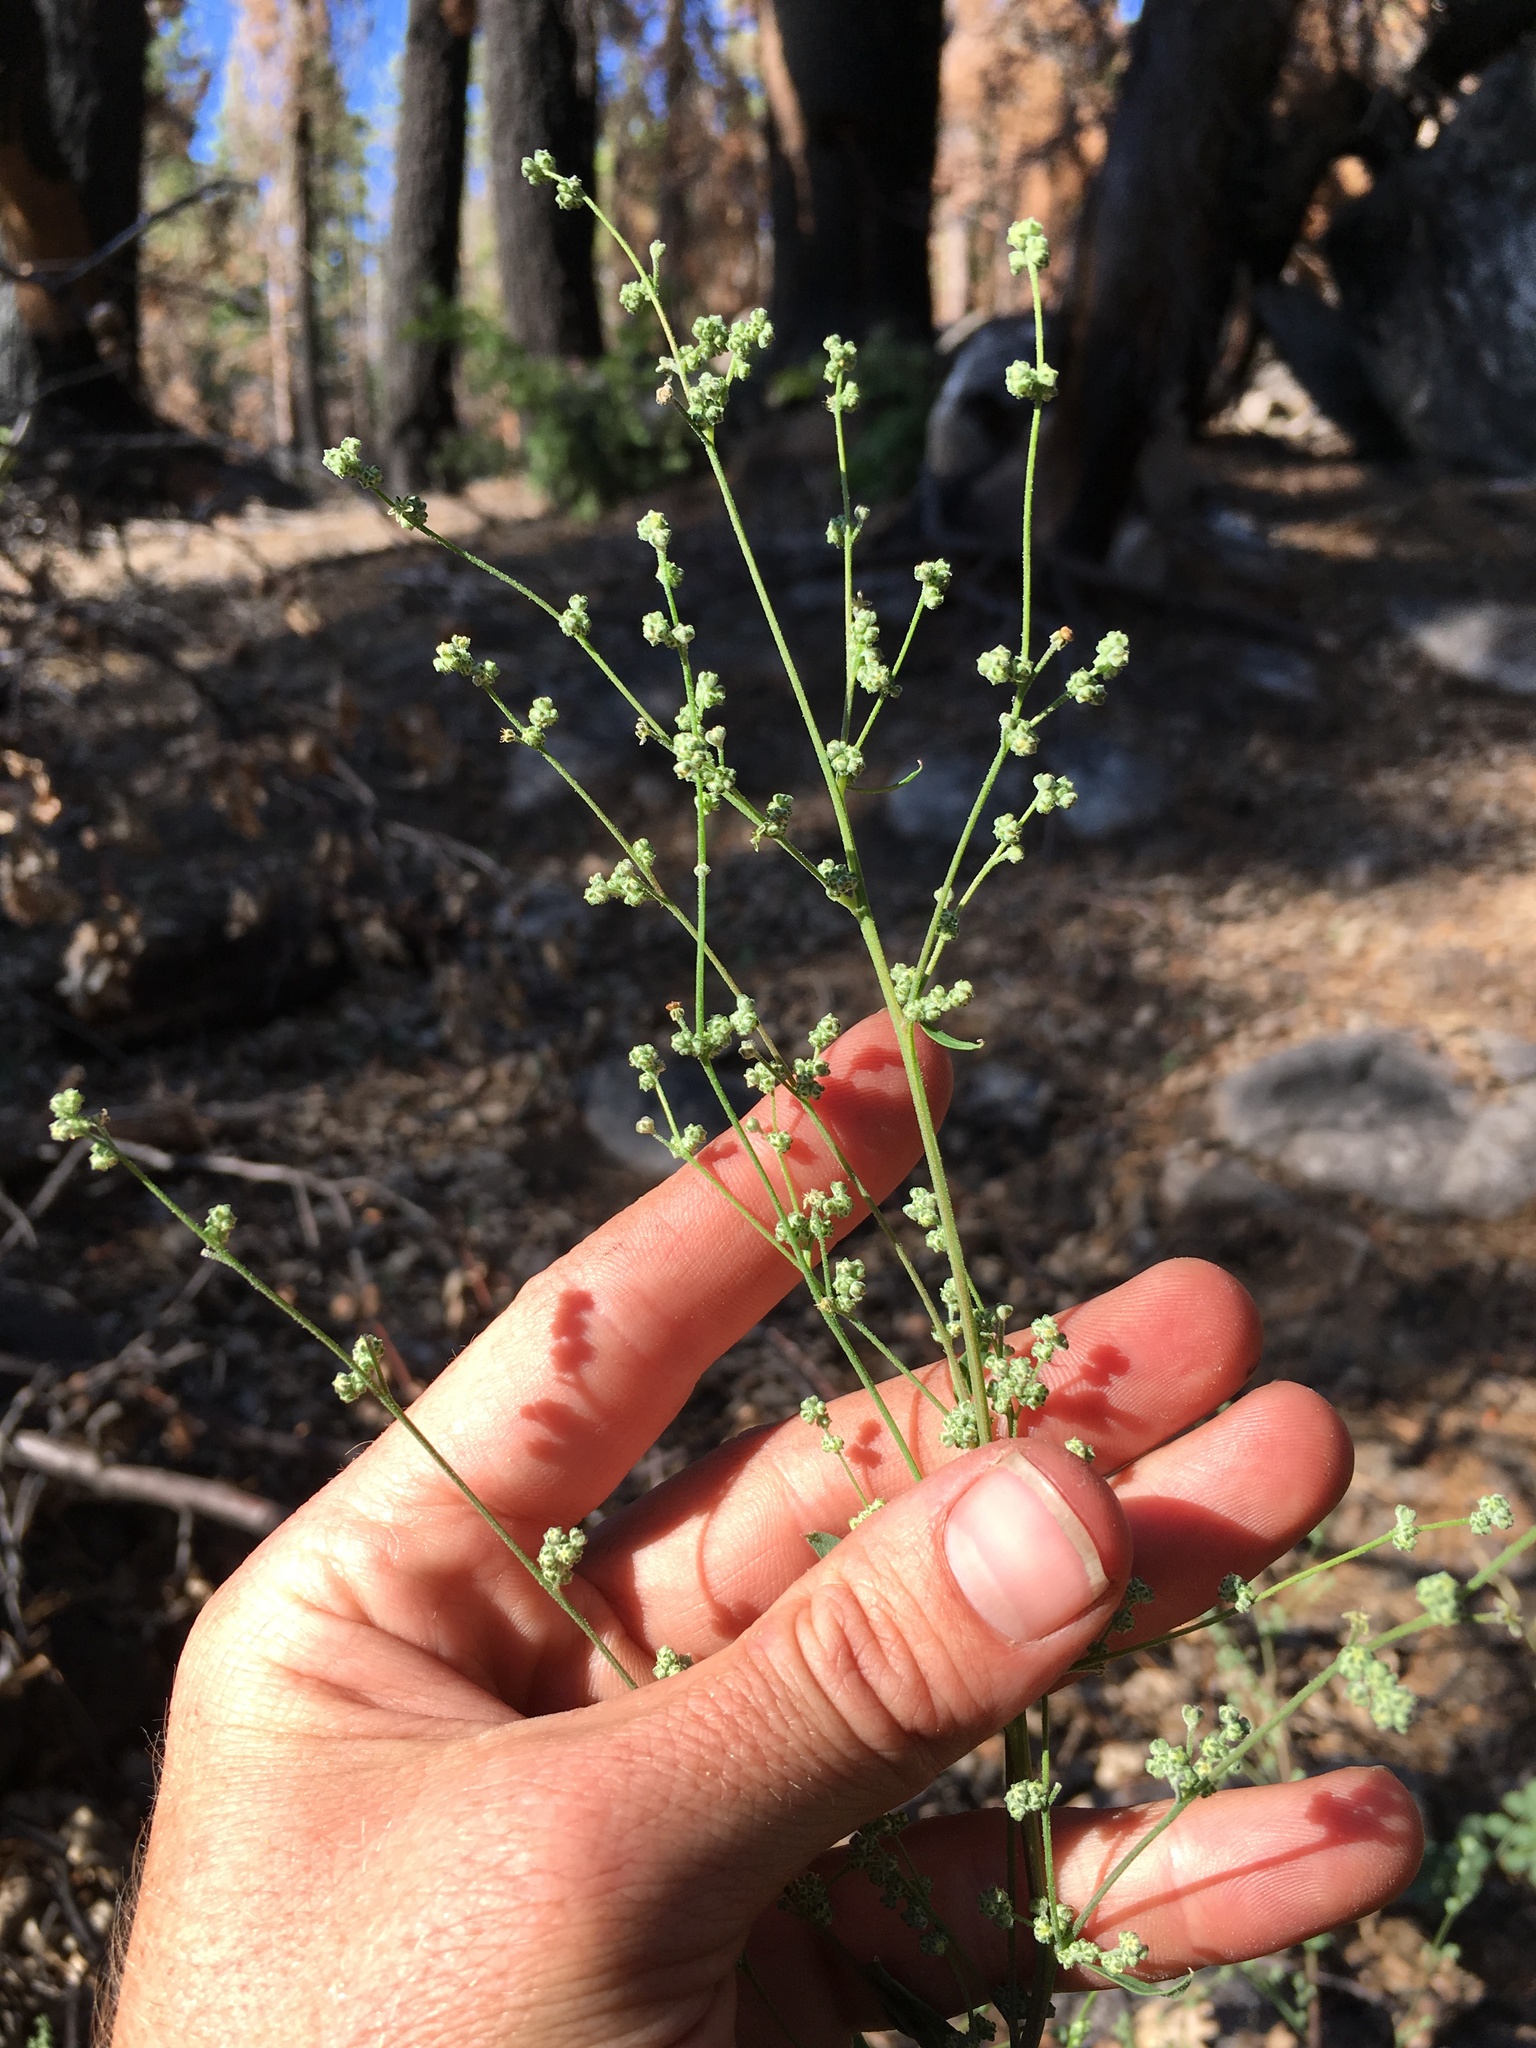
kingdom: Plantae
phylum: Tracheophyta
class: Magnoliopsida
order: Caryophyllales
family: Amaranthaceae
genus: Chenopodium
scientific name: Chenopodium fremontii
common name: Fremont's goosefoot
